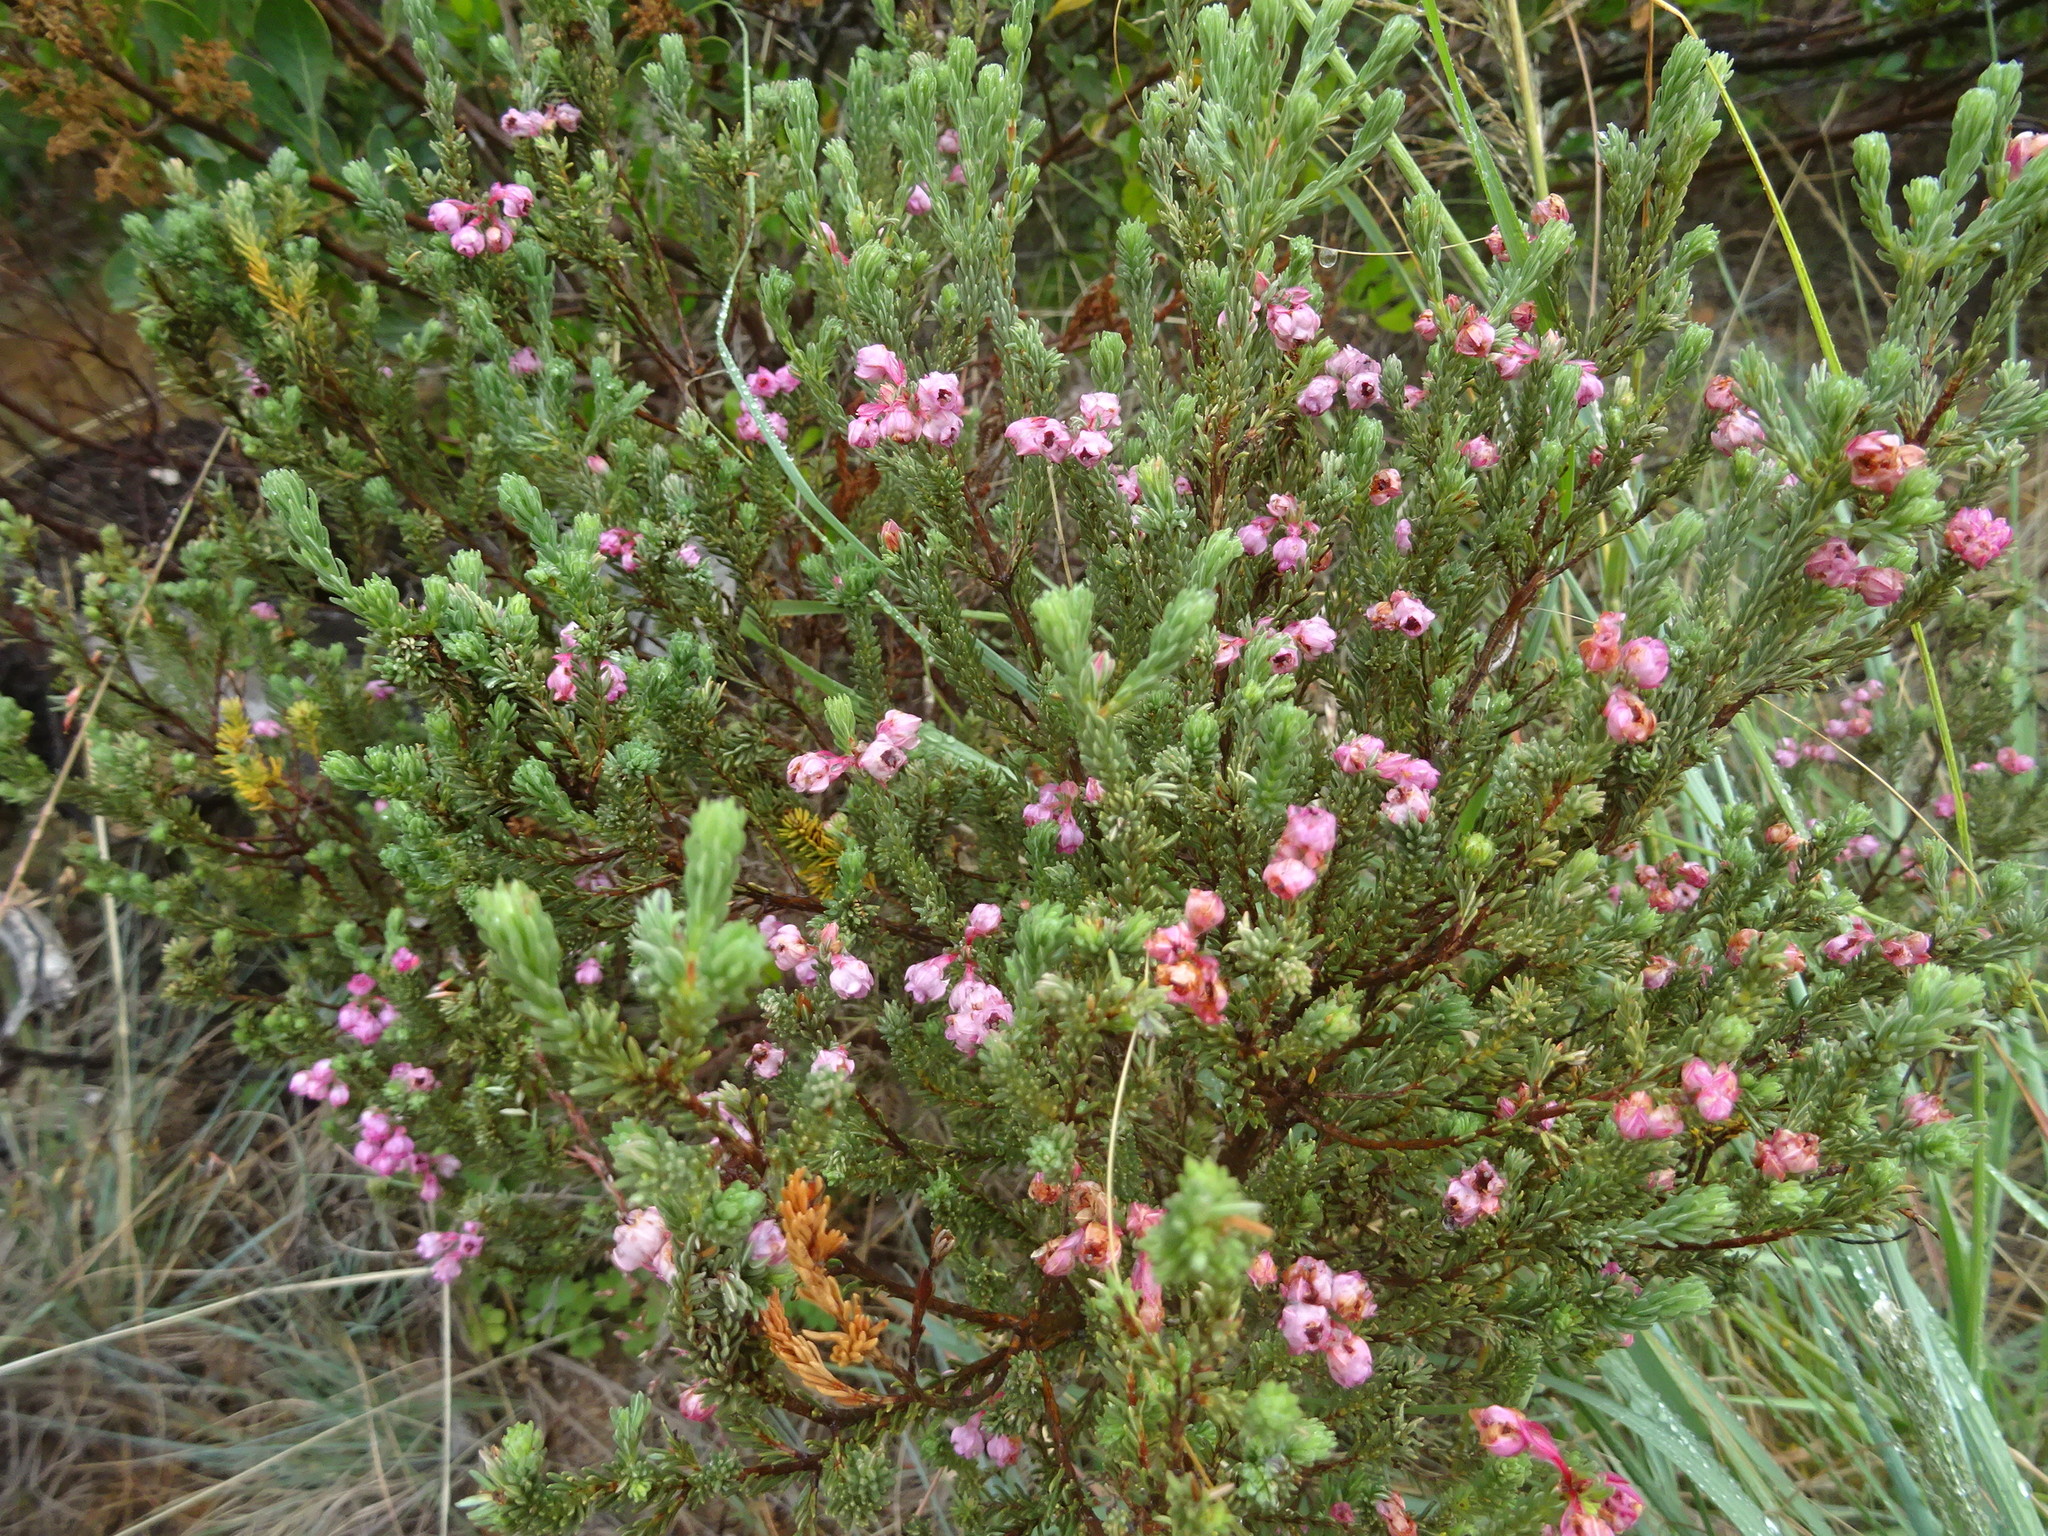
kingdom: Plantae
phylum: Tracheophyta
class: Magnoliopsida
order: Ericales
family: Ericaceae
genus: Erica
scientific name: Erica baccans
